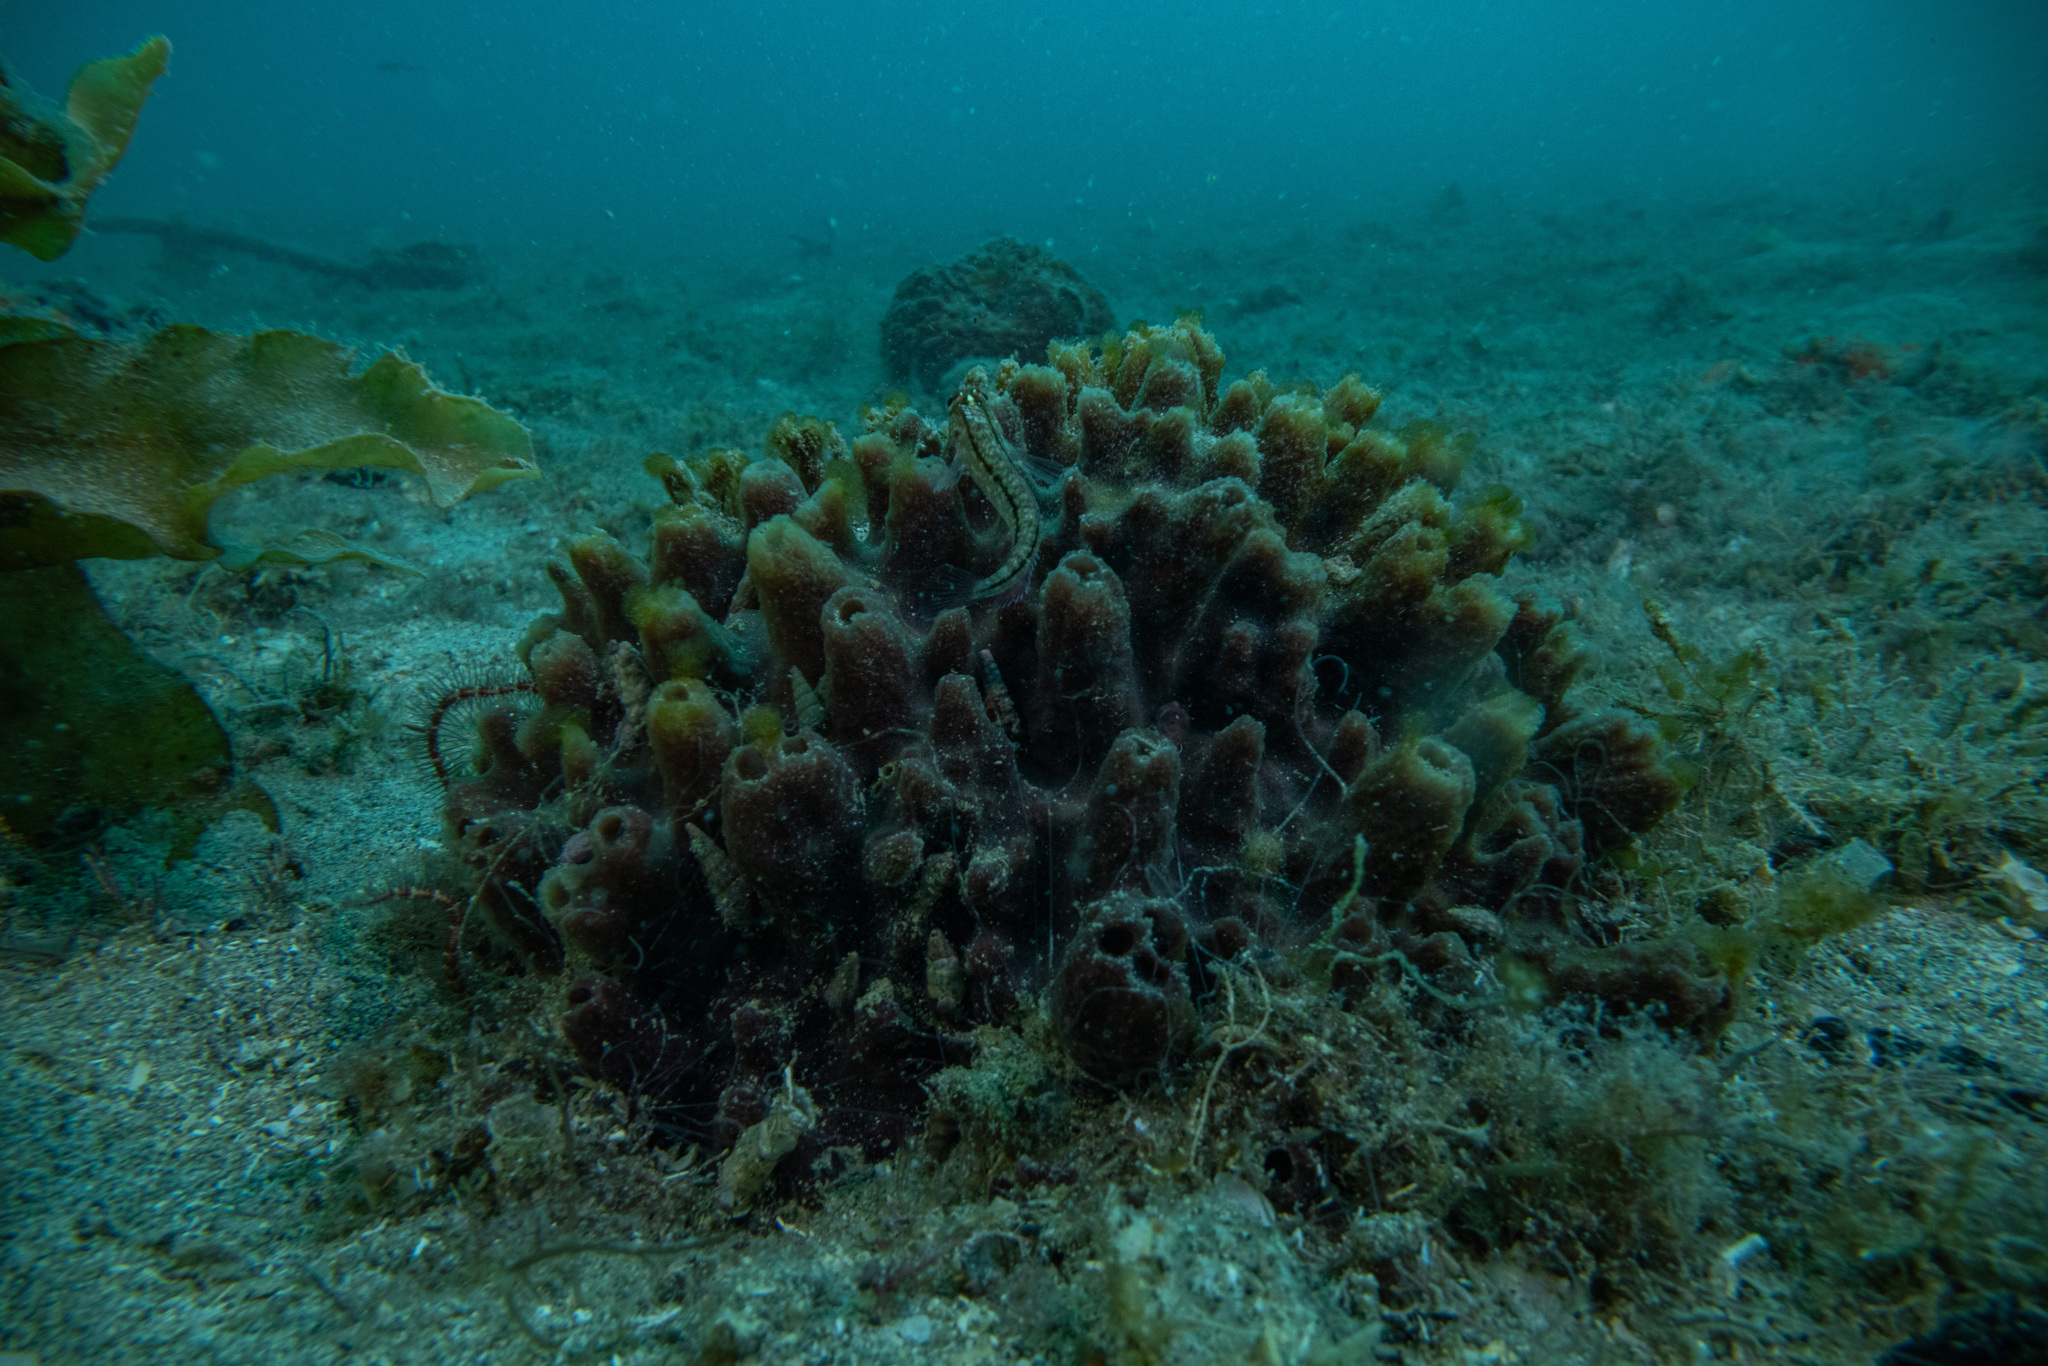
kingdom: Animalia
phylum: Porifera
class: Demospongiae
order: Biemnida
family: Biemnidae
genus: Biemna
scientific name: Biemna rufescens
